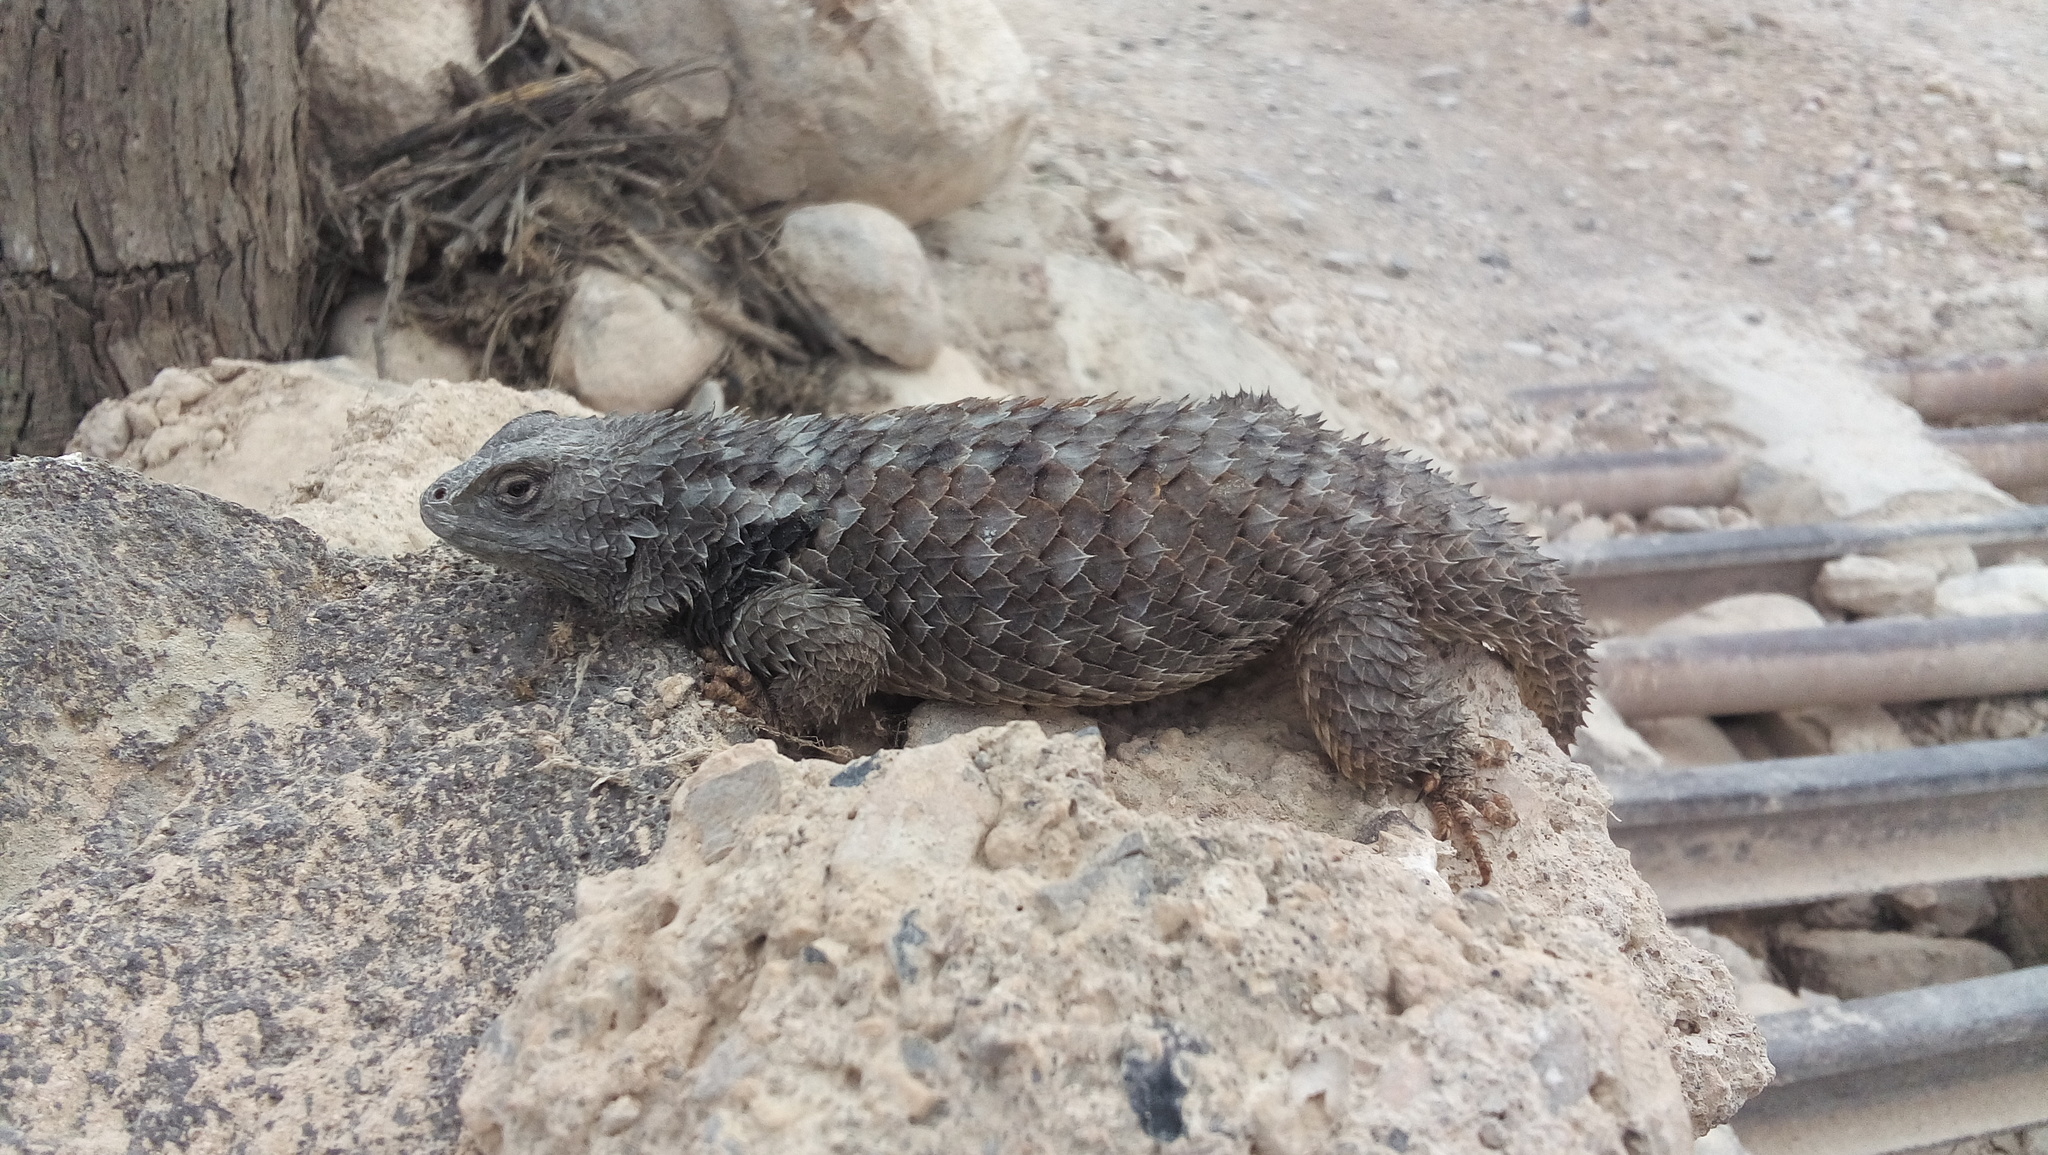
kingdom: Animalia
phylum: Chordata
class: Squamata
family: Phrynosomatidae
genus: Sceloporus
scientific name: Sceloporus torquatus
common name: Central plateau torquate lizard [melanogaster]
